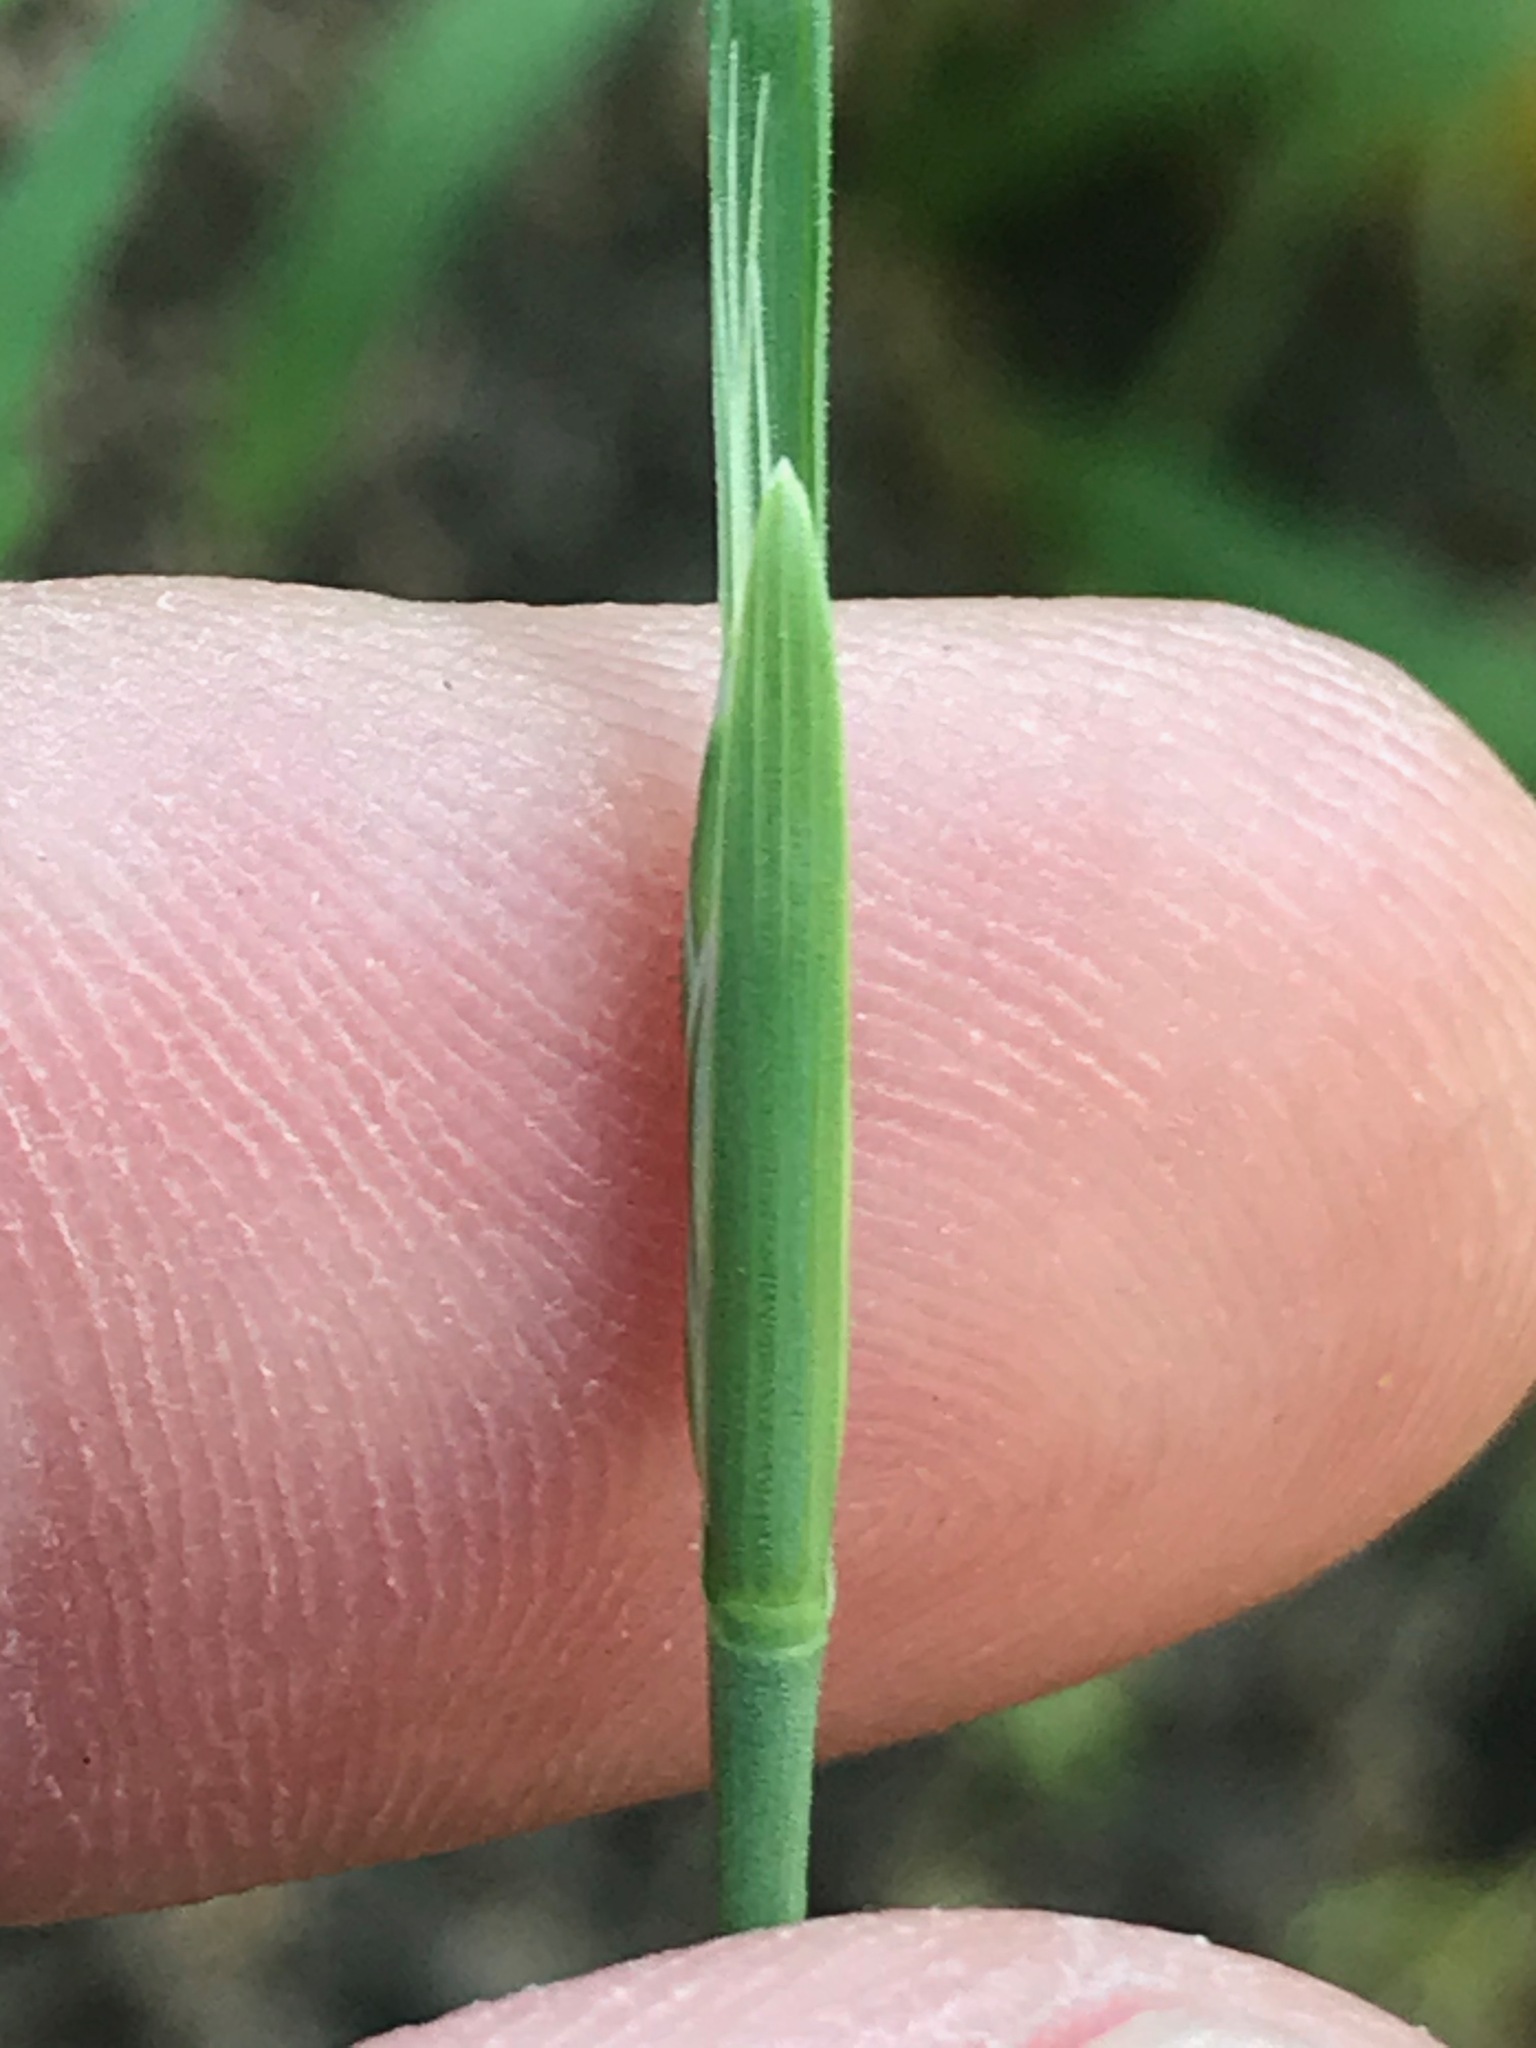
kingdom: Plantae
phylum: Tracheophyta
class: Liliopsida
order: Poales
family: Poaceae
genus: Lolium
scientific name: Lolium temulentum
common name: Darnel
